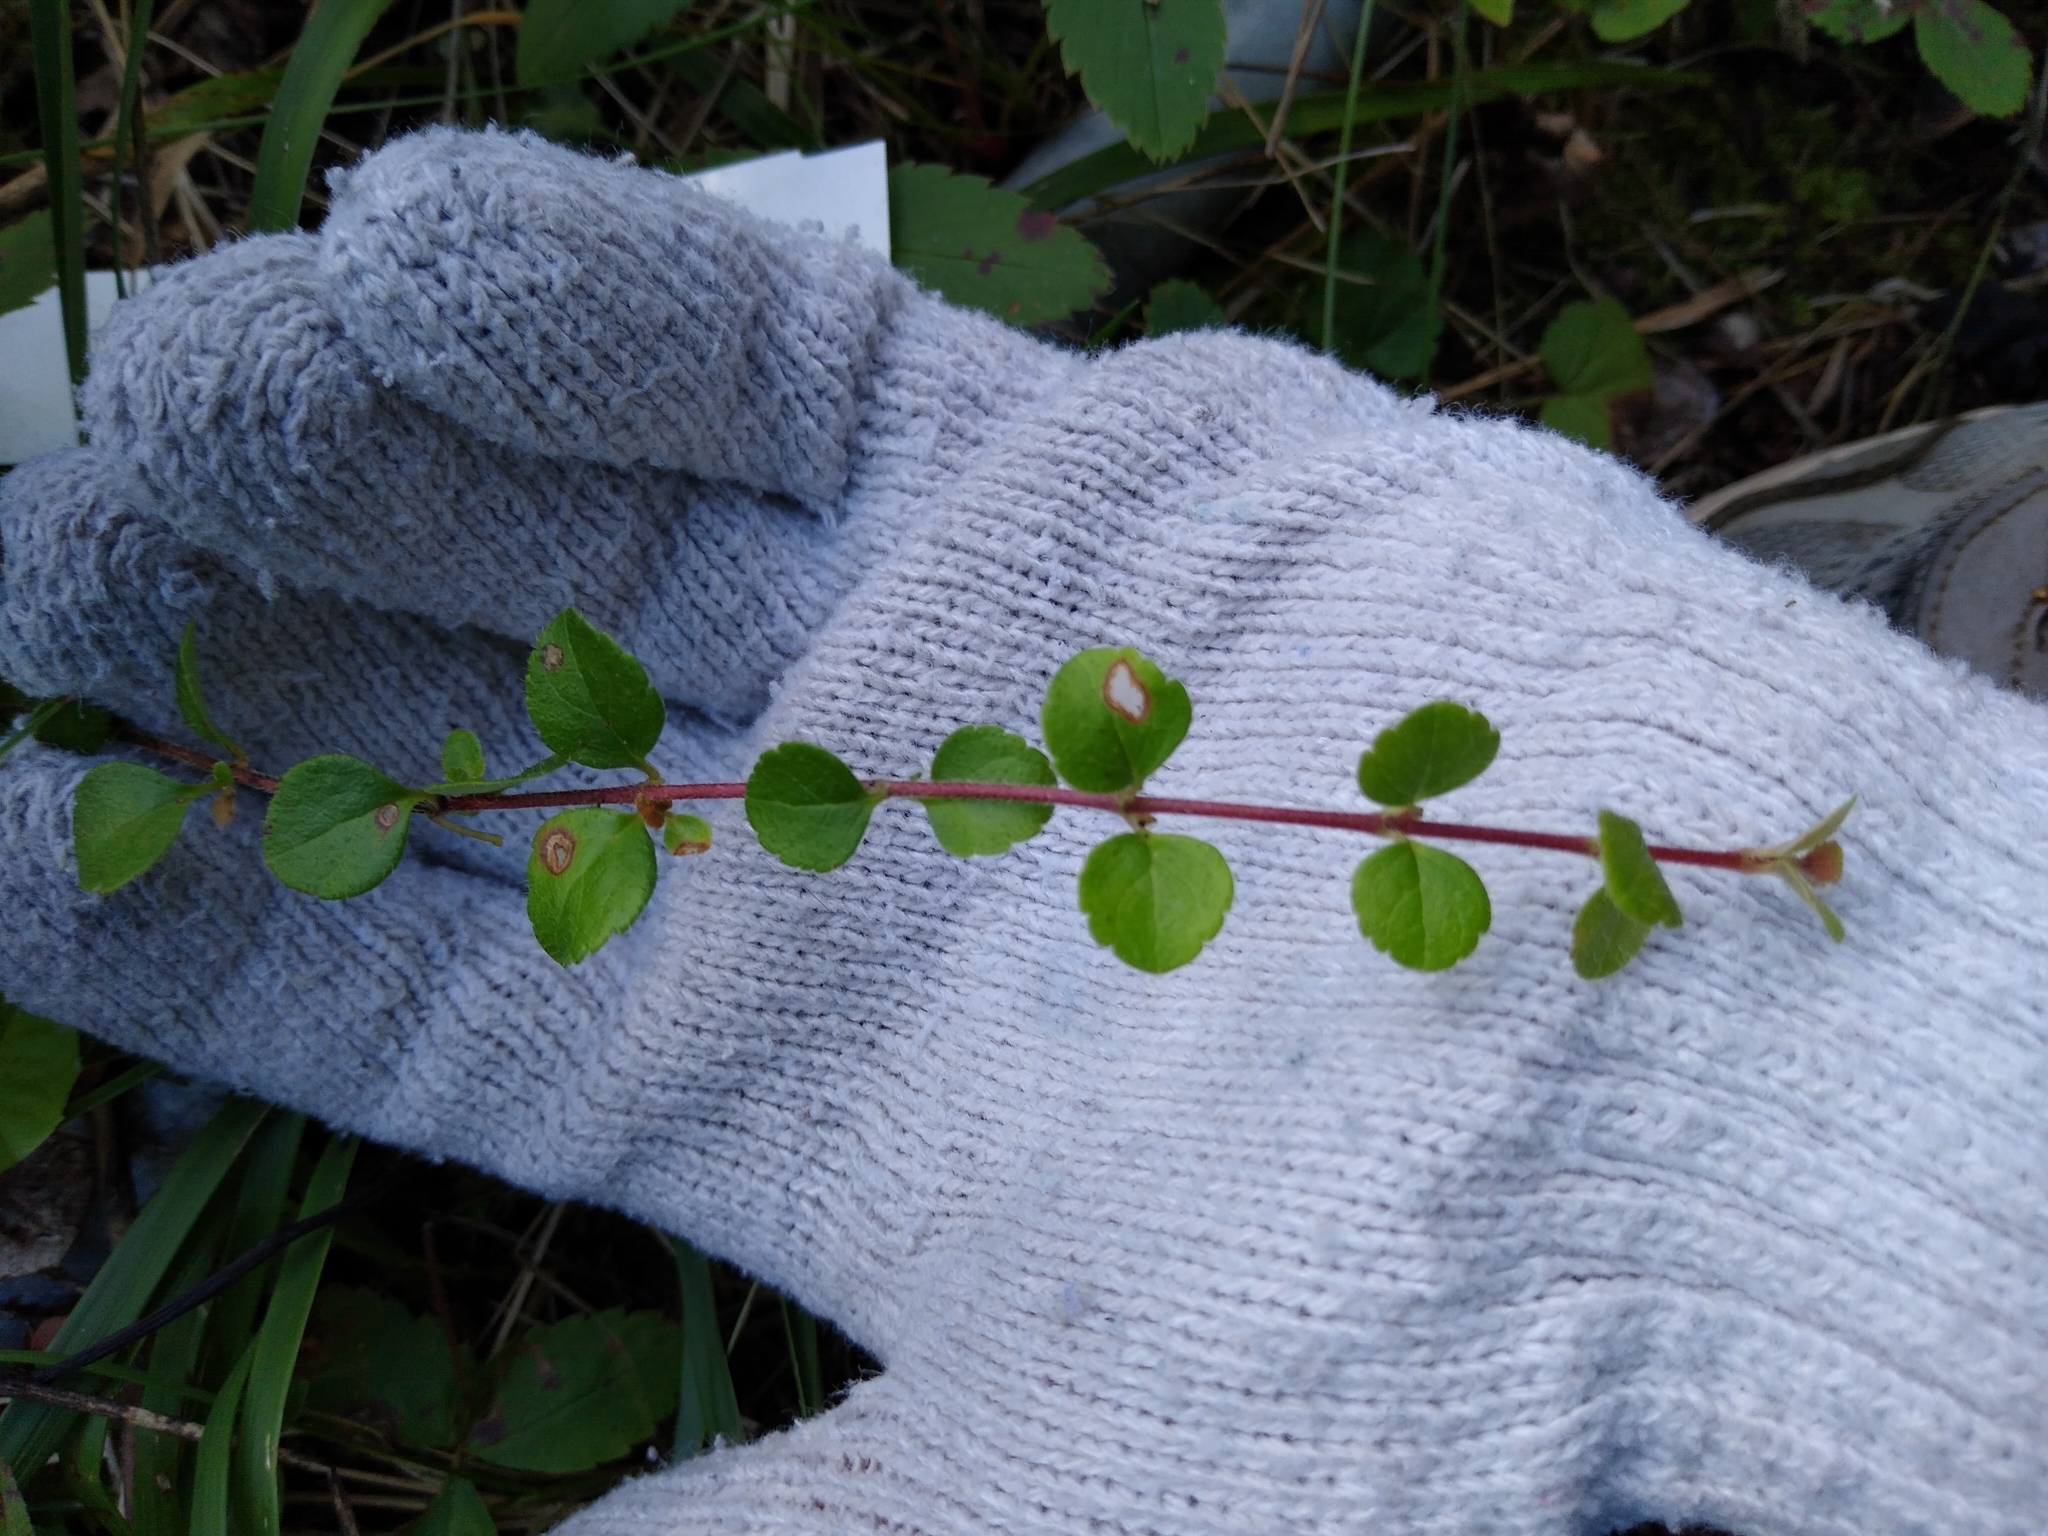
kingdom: Plantae
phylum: Tracheophyta
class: Magnoliopsida
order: Dipsacales
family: Caprifoliaceae
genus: Linnaea
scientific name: Linnaea borealis
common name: Twinflower
